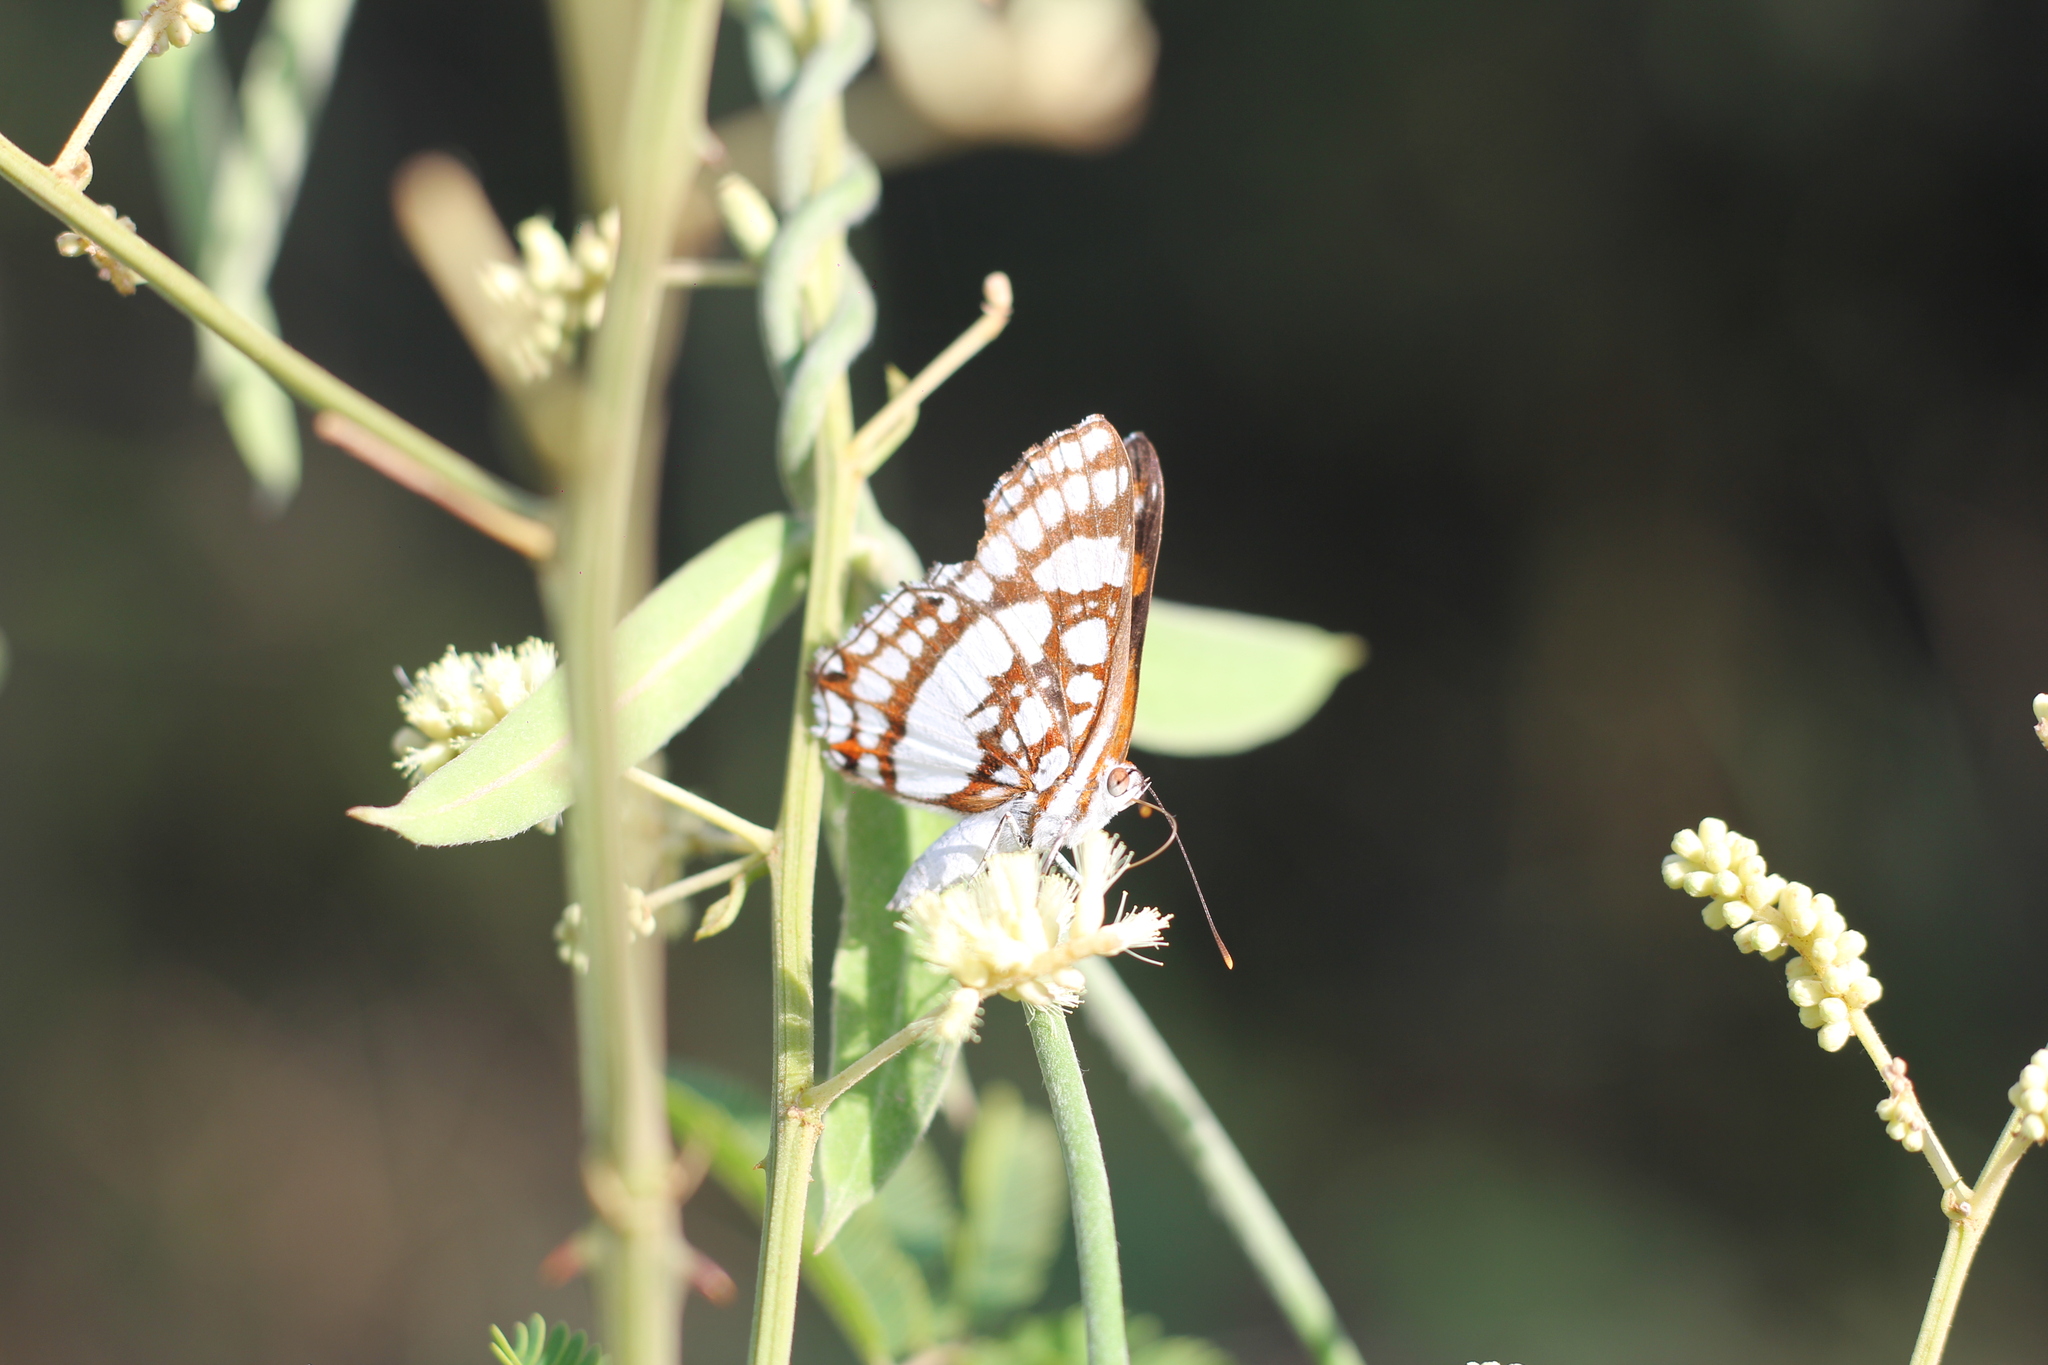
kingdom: Animalia
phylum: Arthropoda
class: Insecta
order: Lepidoptera
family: Riodinidae
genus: Ariconias
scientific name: Ariconias glaphyra
